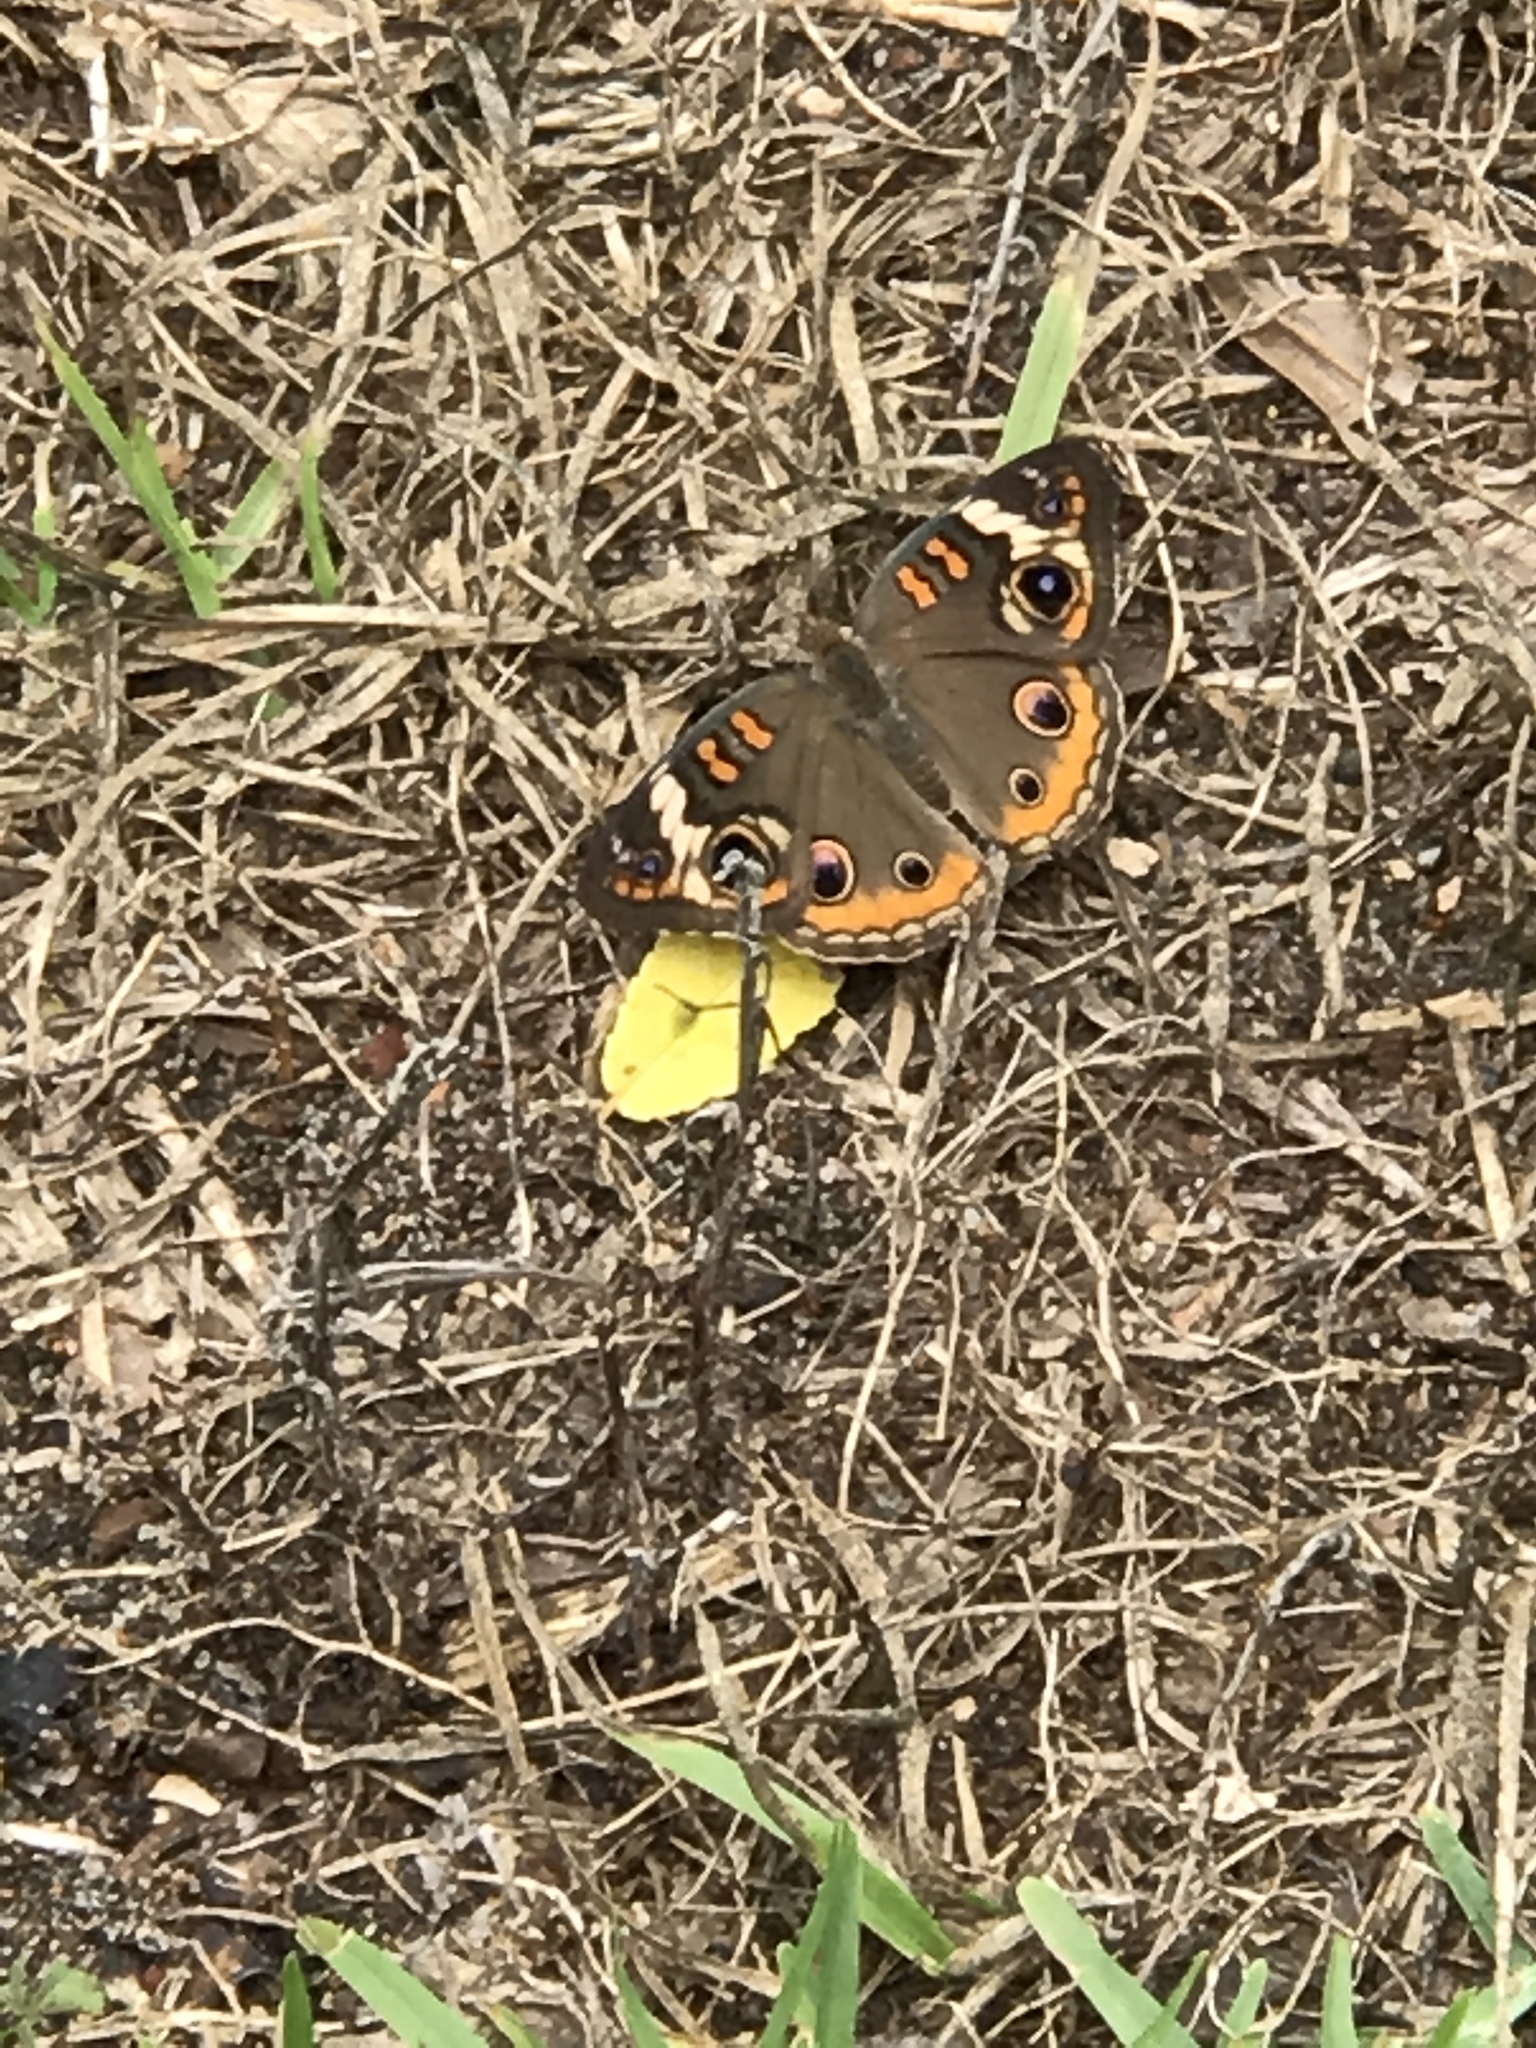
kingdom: Animalia
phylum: Arthropoda
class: Insecta
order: Lepidoptera
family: Nymphalidae
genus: Junonia
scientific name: Junonia coenia
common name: Common buckeye
